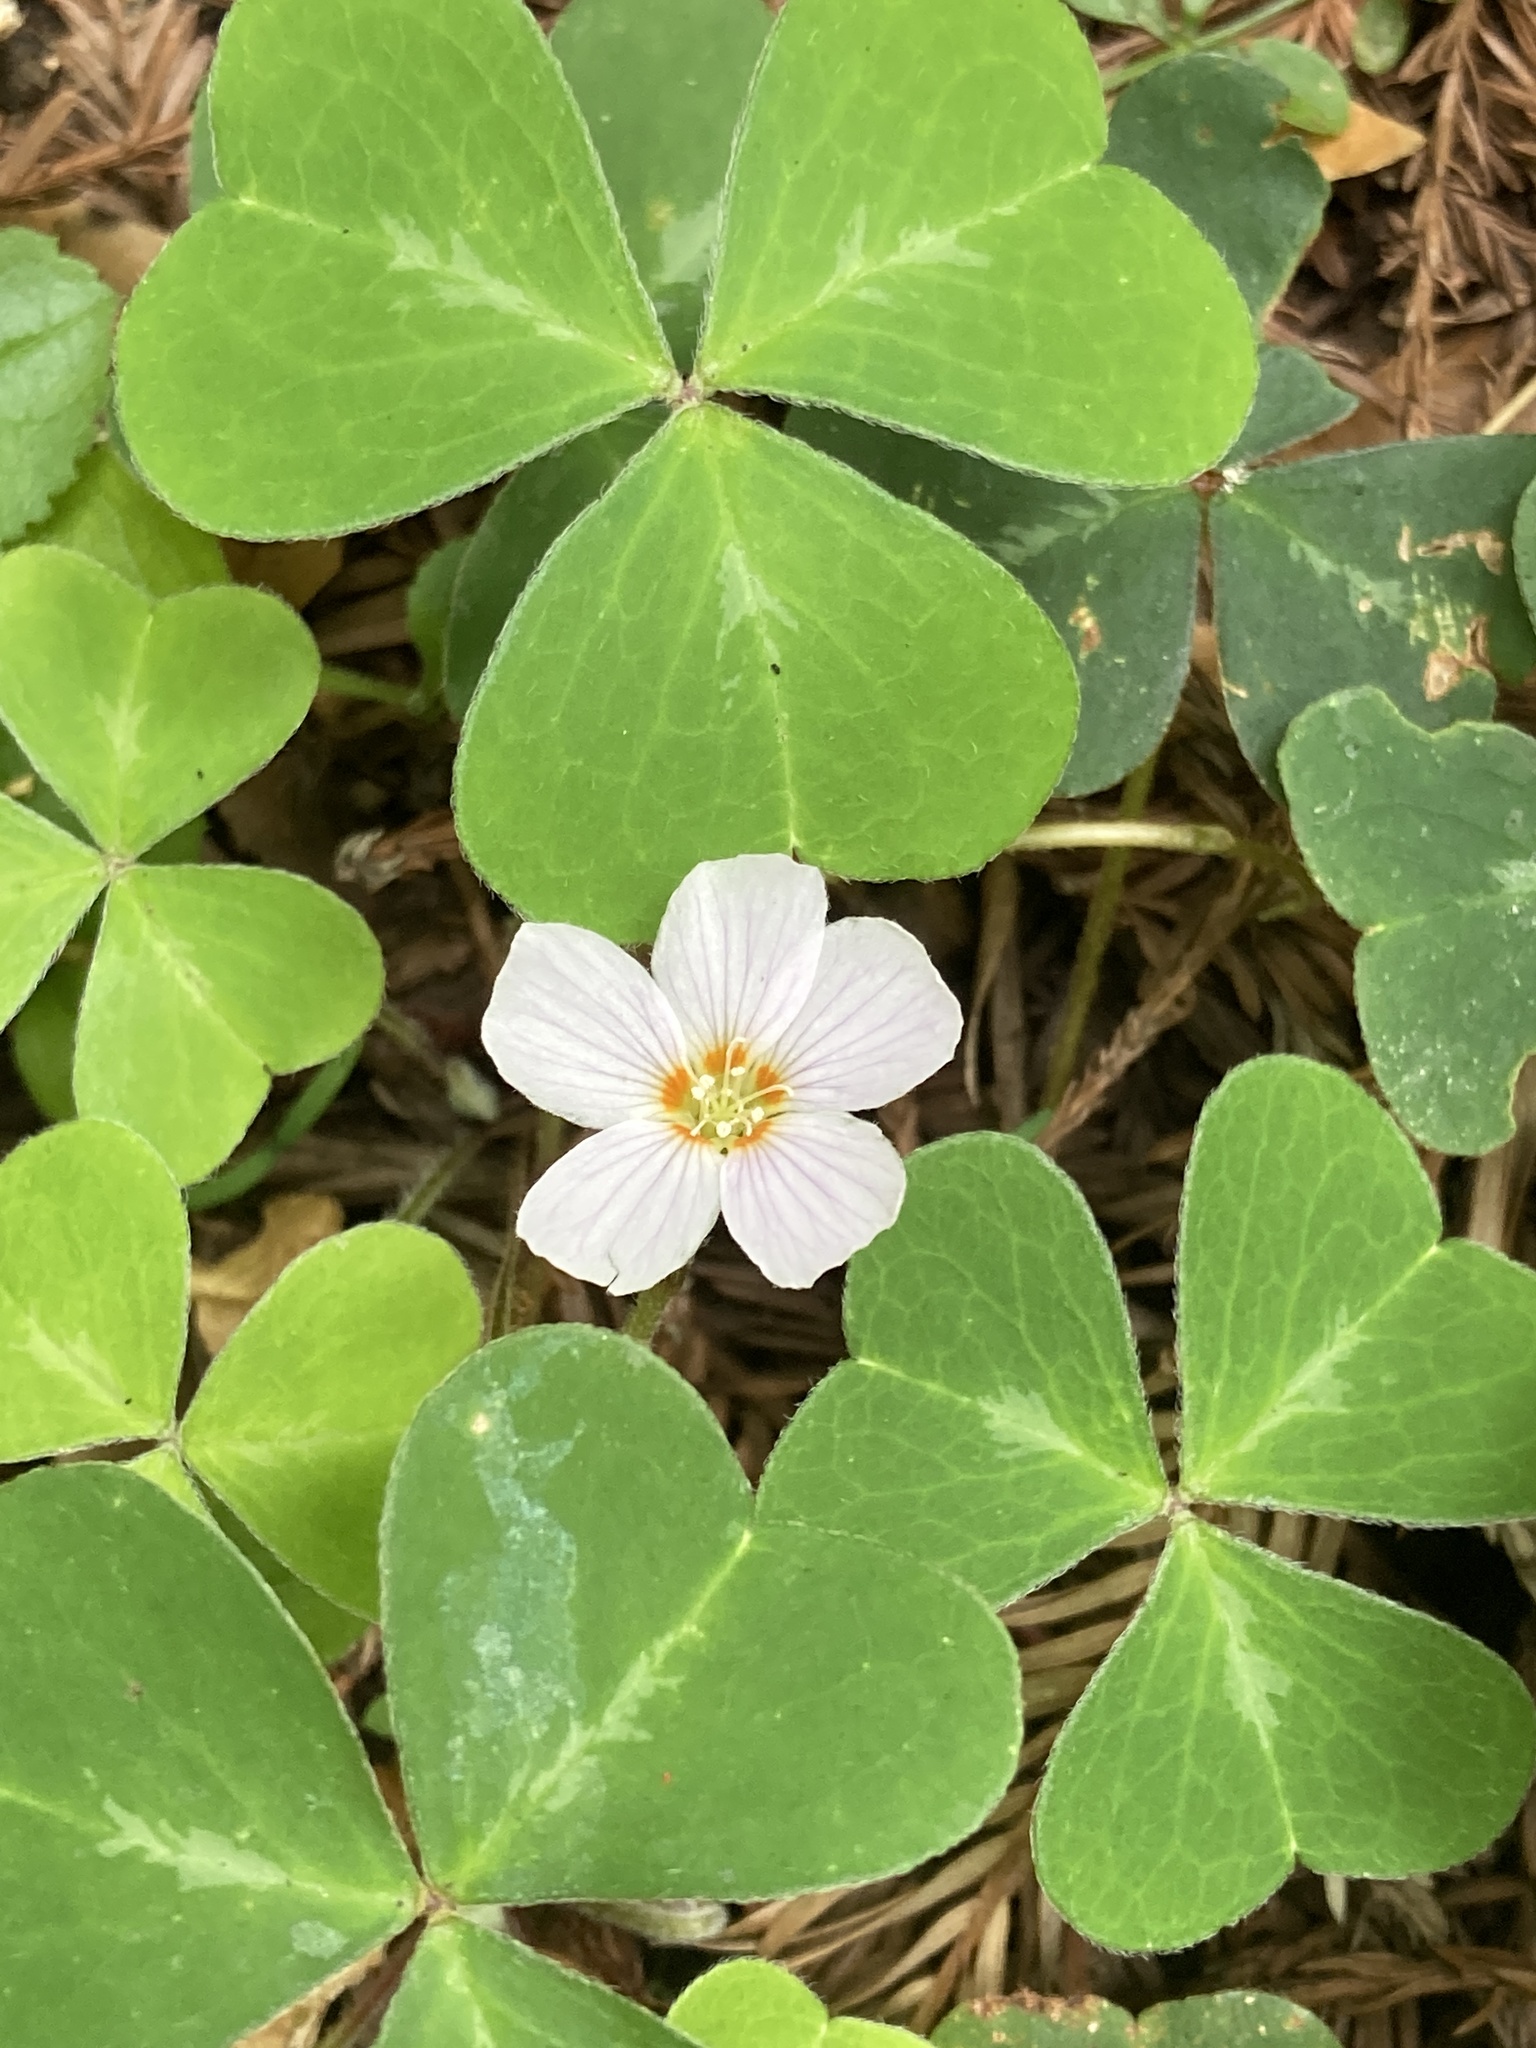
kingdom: Plantae
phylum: Tracheophyta
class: Magnoliopsida
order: Oxalidales
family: Oxalidaceae
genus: Oxalis
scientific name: Oxalis oregana
